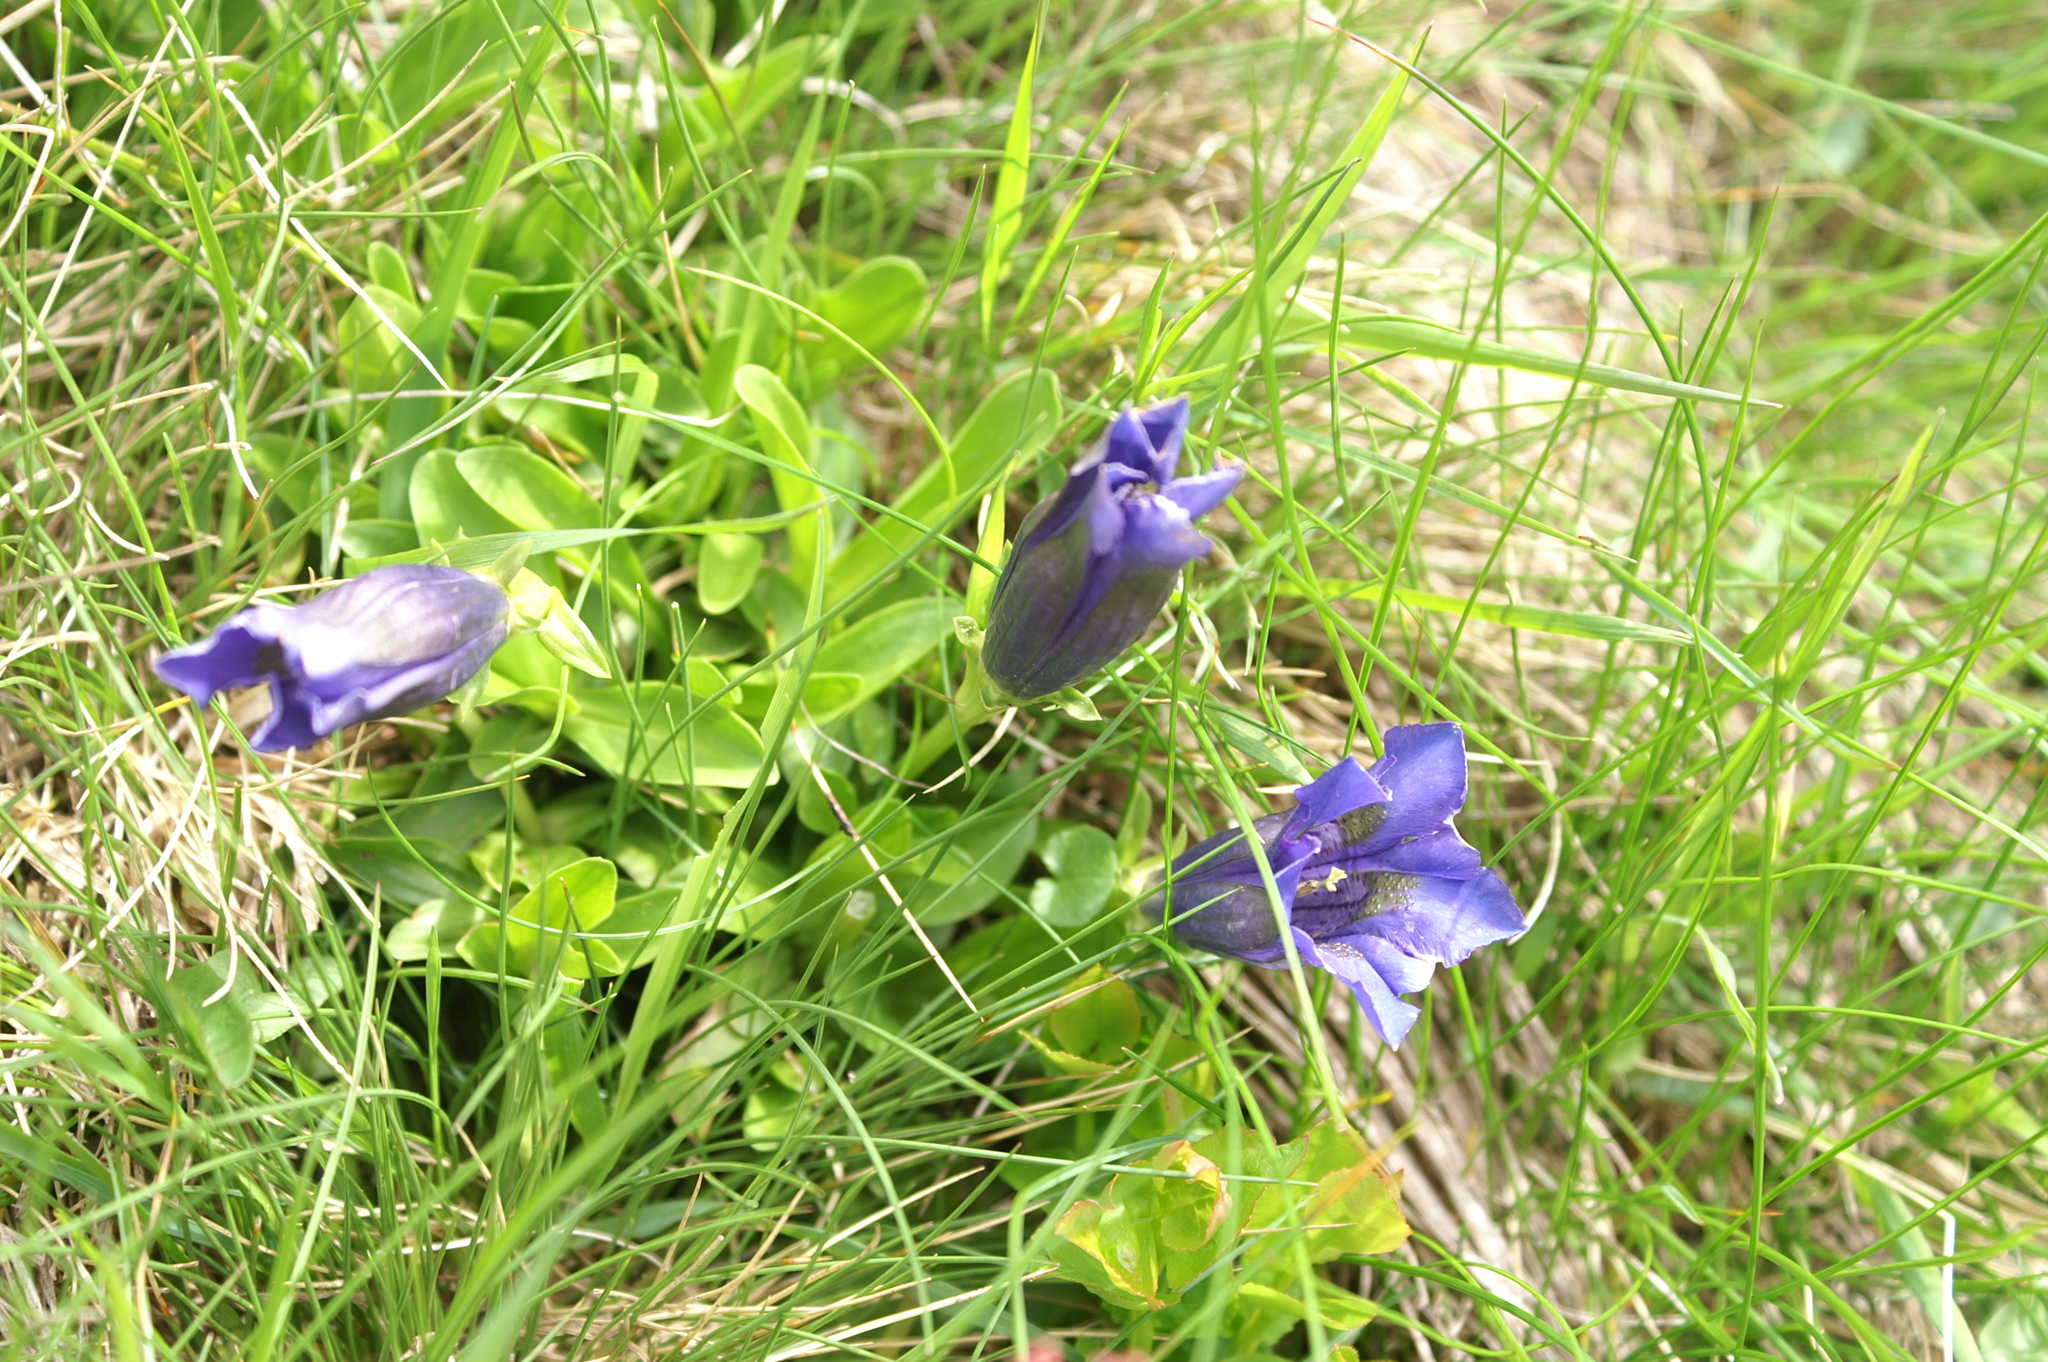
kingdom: Plantae
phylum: Tracheophyta
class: Magnoliopsida
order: Gentianales
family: Gentianaceae
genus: Gentiana
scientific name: Gentiana acaulis
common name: Trumpet gentian
